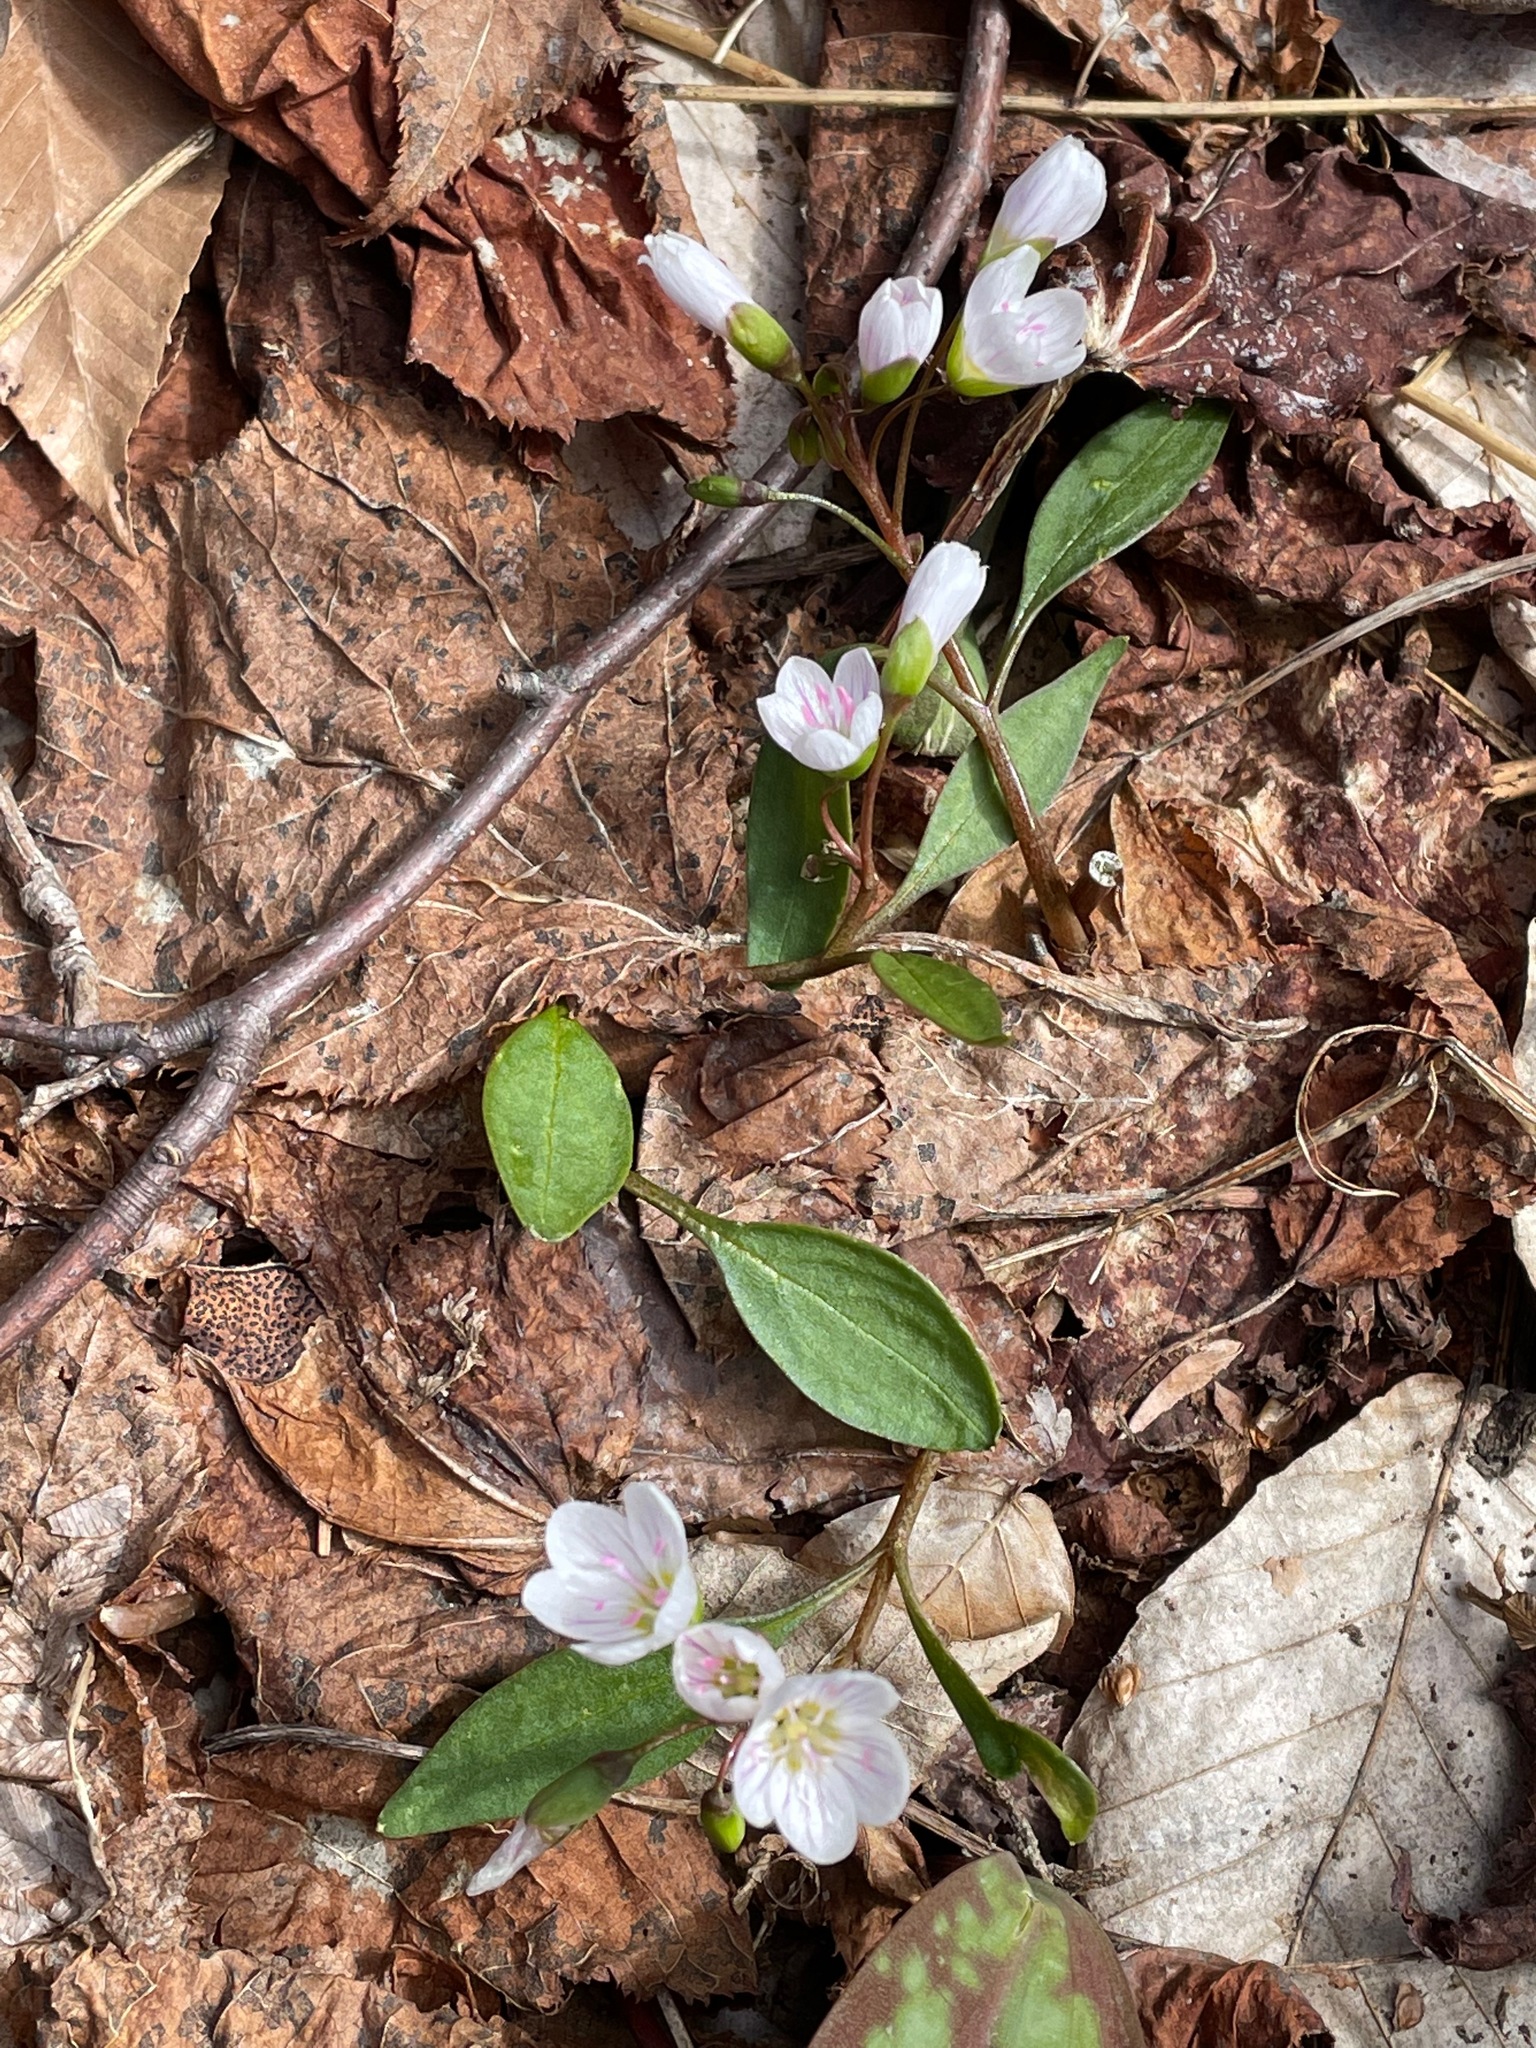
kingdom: Plantae
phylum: Tracheophyta
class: Magnoliopsida
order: Caryophyllales
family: Montiaceae
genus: Claytonia
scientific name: Claytonia caroliniana
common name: Carolina spring beauty
